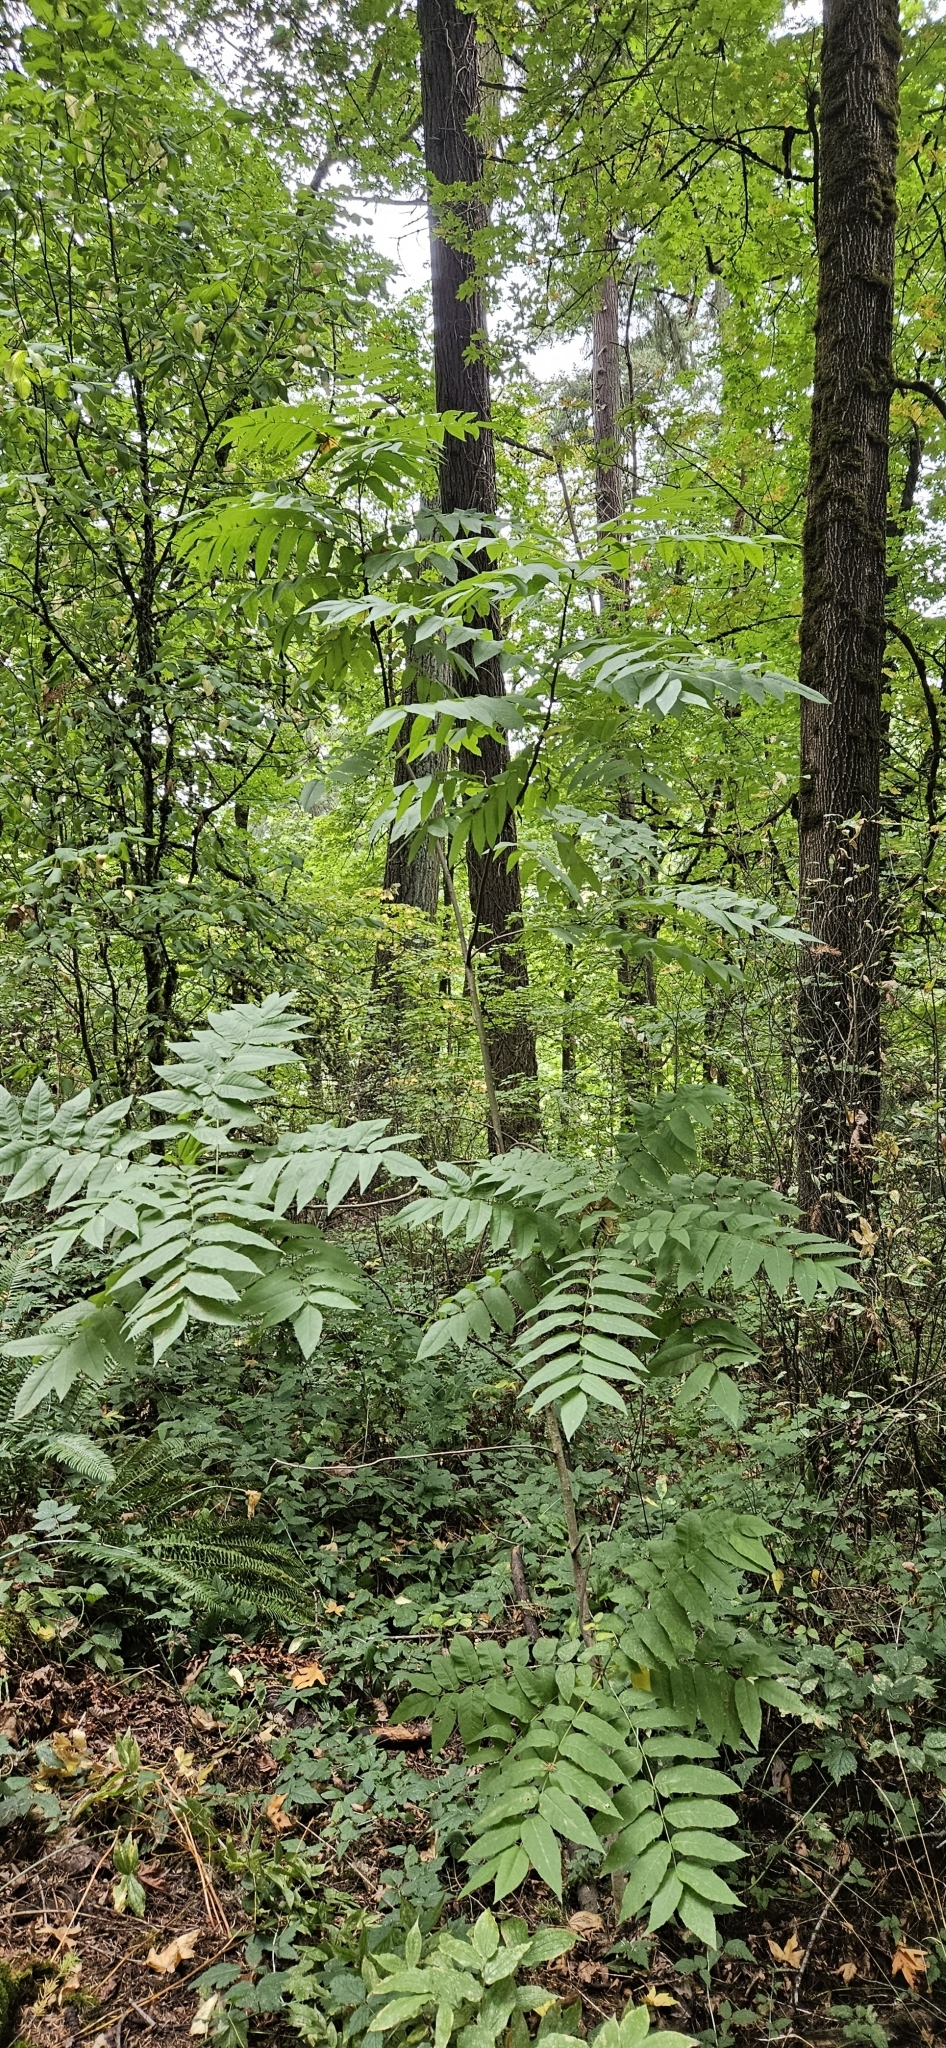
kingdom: Plantae
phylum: Tracheophyta
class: Magnoliopsida
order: Rosales
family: Rosaceae
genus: Sorbus
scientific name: Sorbus aucuparia
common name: Rowan
